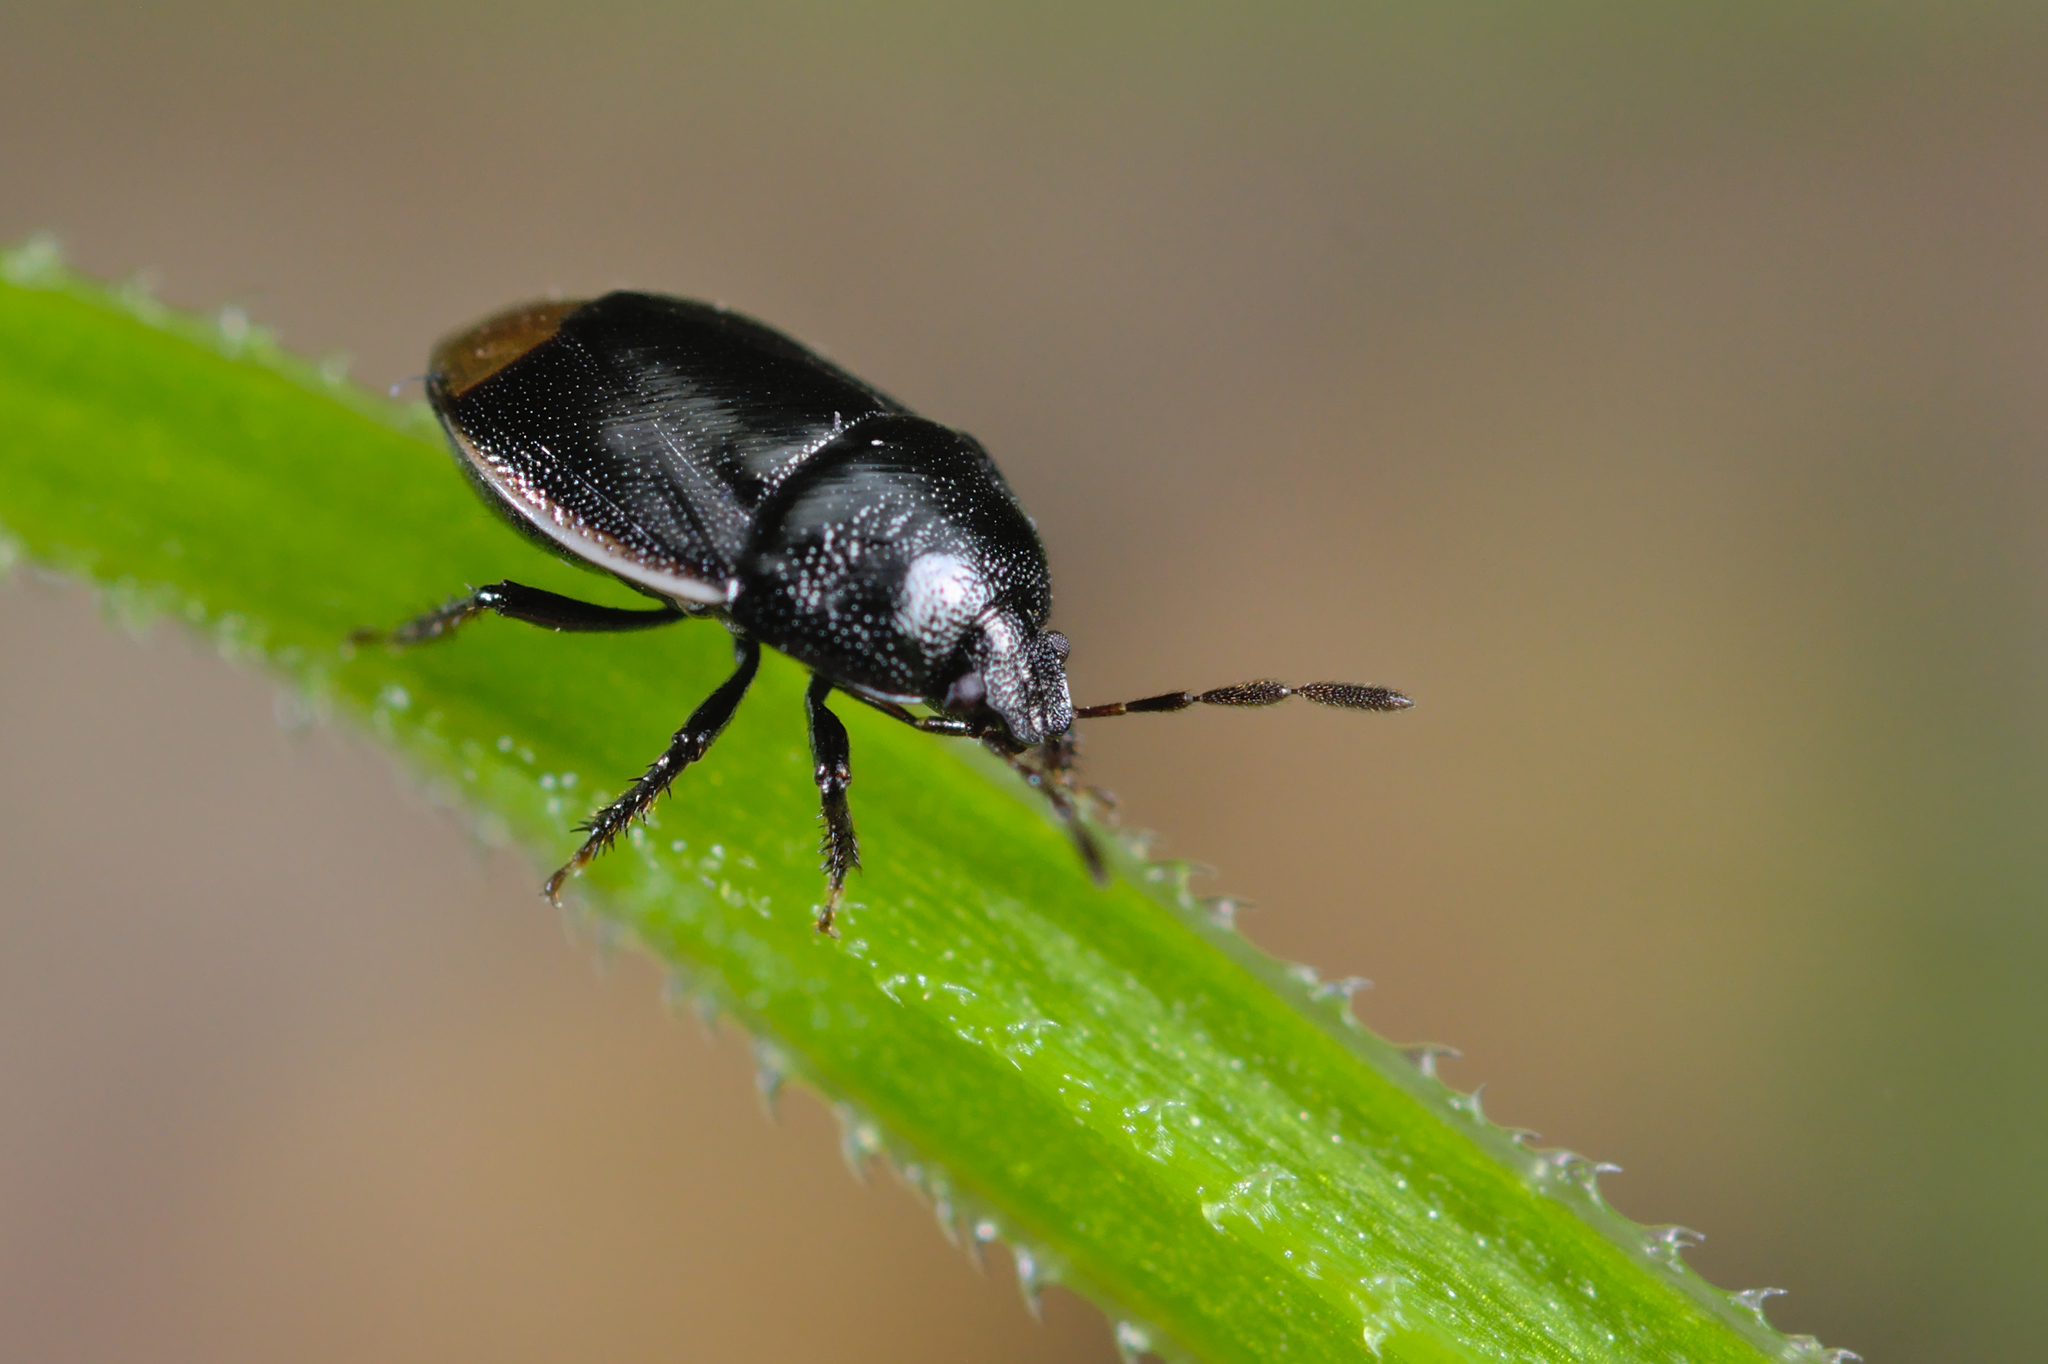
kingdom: Animalia
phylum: Arthropoda
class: Insecta
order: Hemiptera
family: Cydnidae
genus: Legnotus
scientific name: Legnotus limbosus
